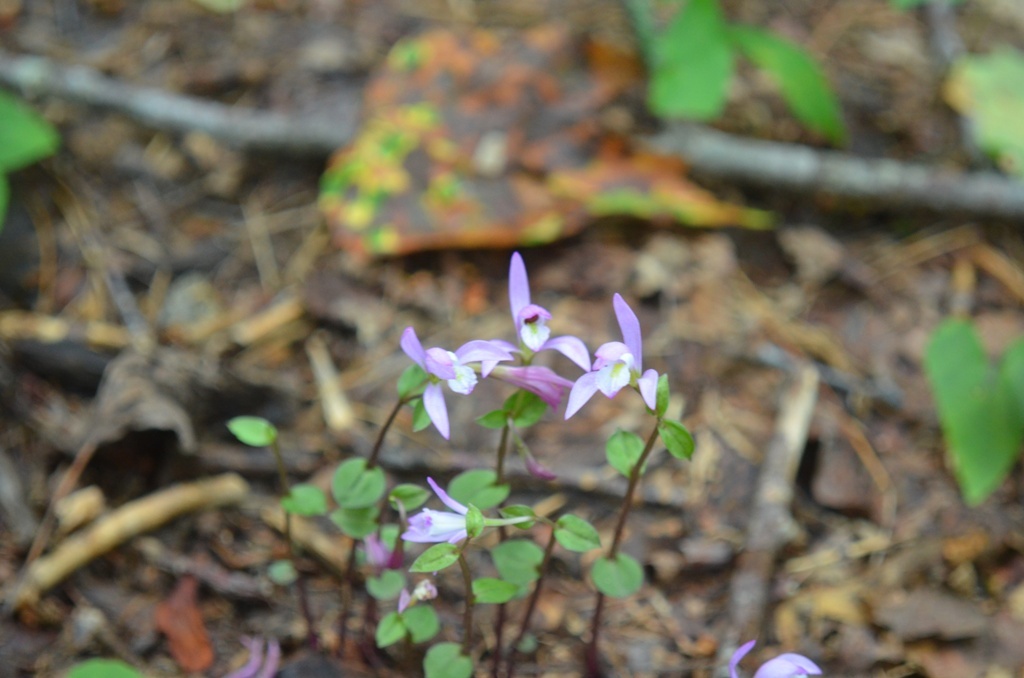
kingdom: Plantae
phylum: Tracheophyta
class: Liliopsida
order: Asparagales
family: Orchidaceae
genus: Triphora
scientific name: Triphora trianthophoros
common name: Three birds orchid
